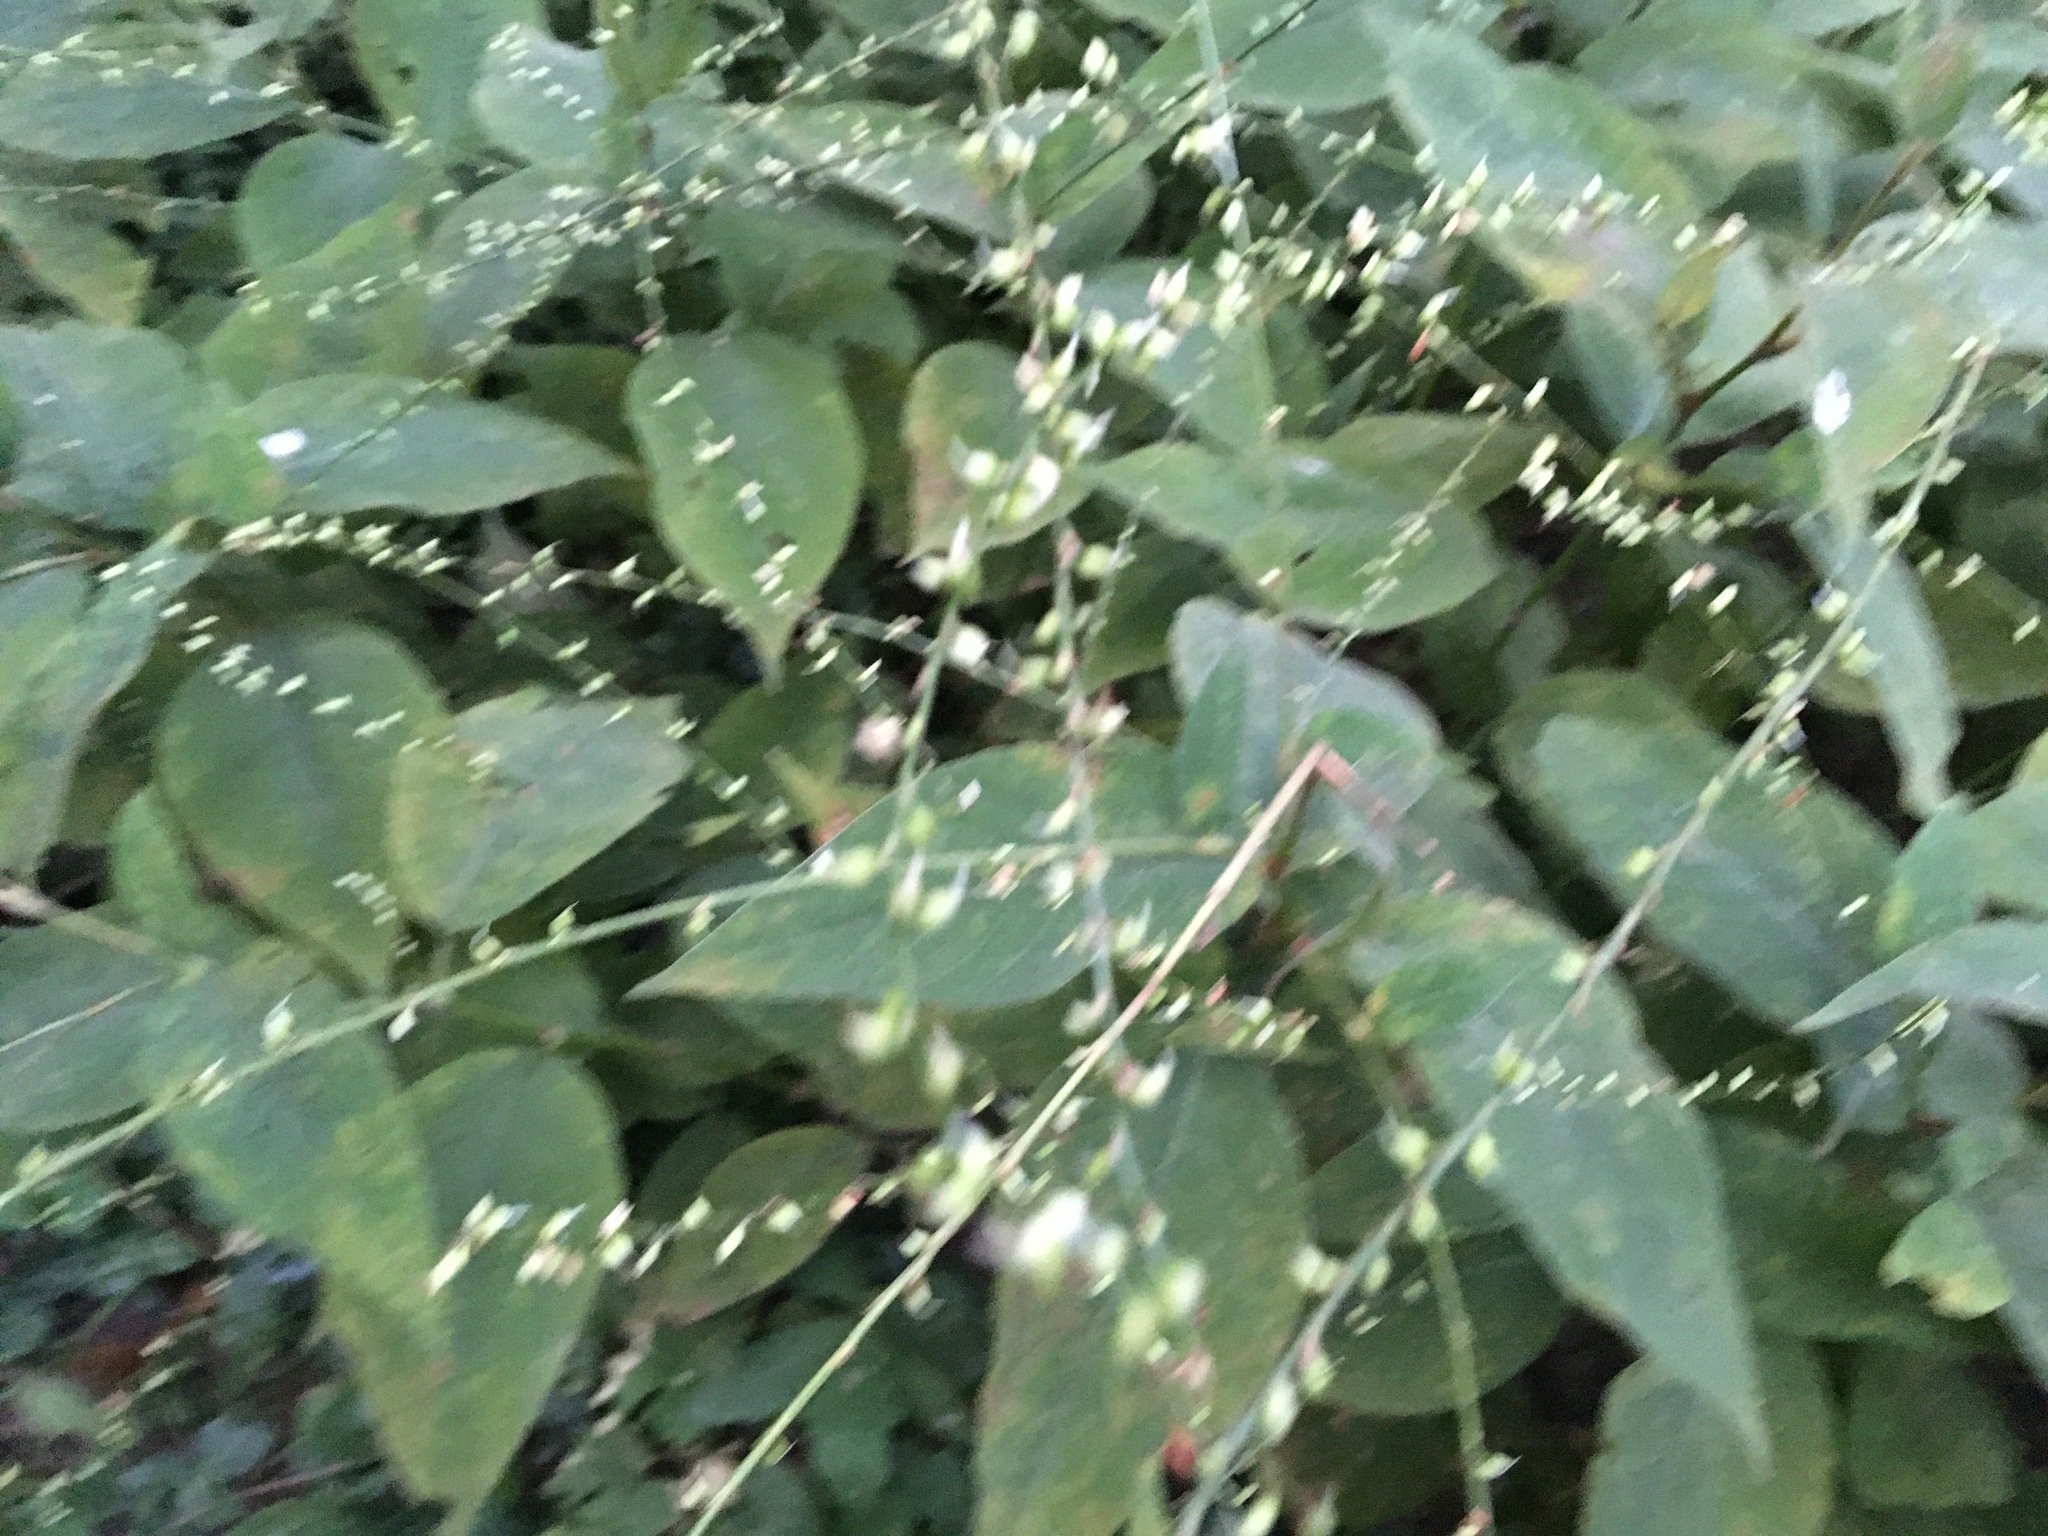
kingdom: Plantae
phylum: Tracheophyta
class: Magnoliopsida
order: Caryophyllales
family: Polygonaceae
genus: Persicaria
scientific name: Persicaria virginiana
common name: Jumpseed
